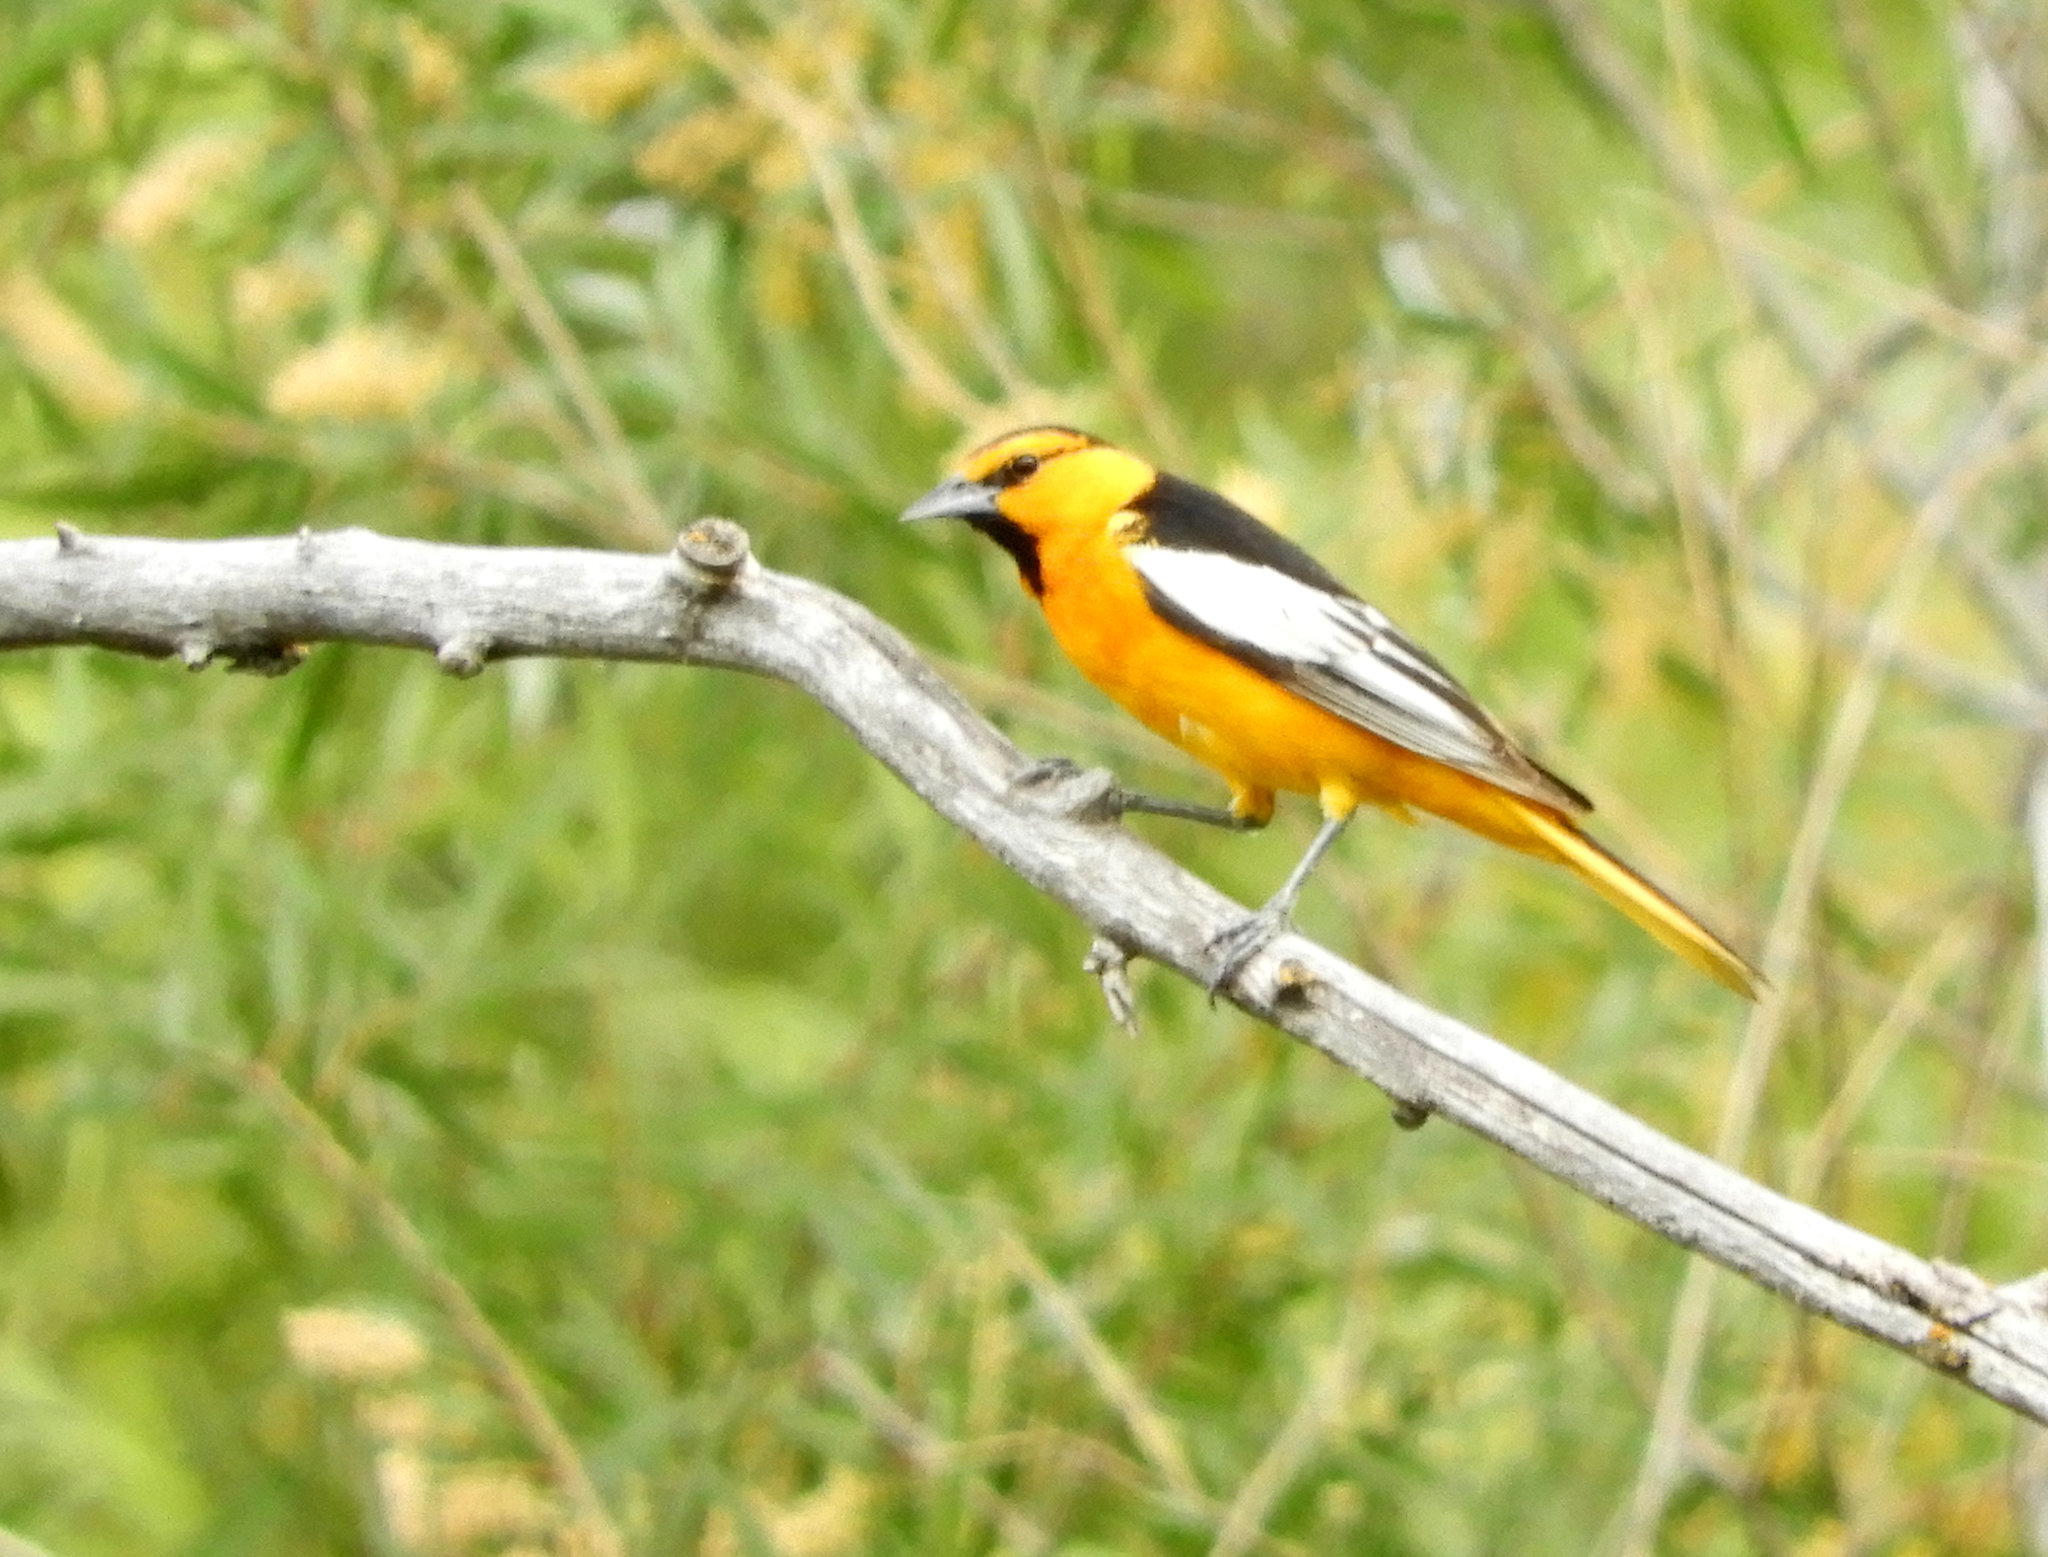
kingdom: Animalia
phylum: Chordata
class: Aves
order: Passeriformes
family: Icteridae
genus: Icterus
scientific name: Icterus bullockii
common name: Bullock's oriole
